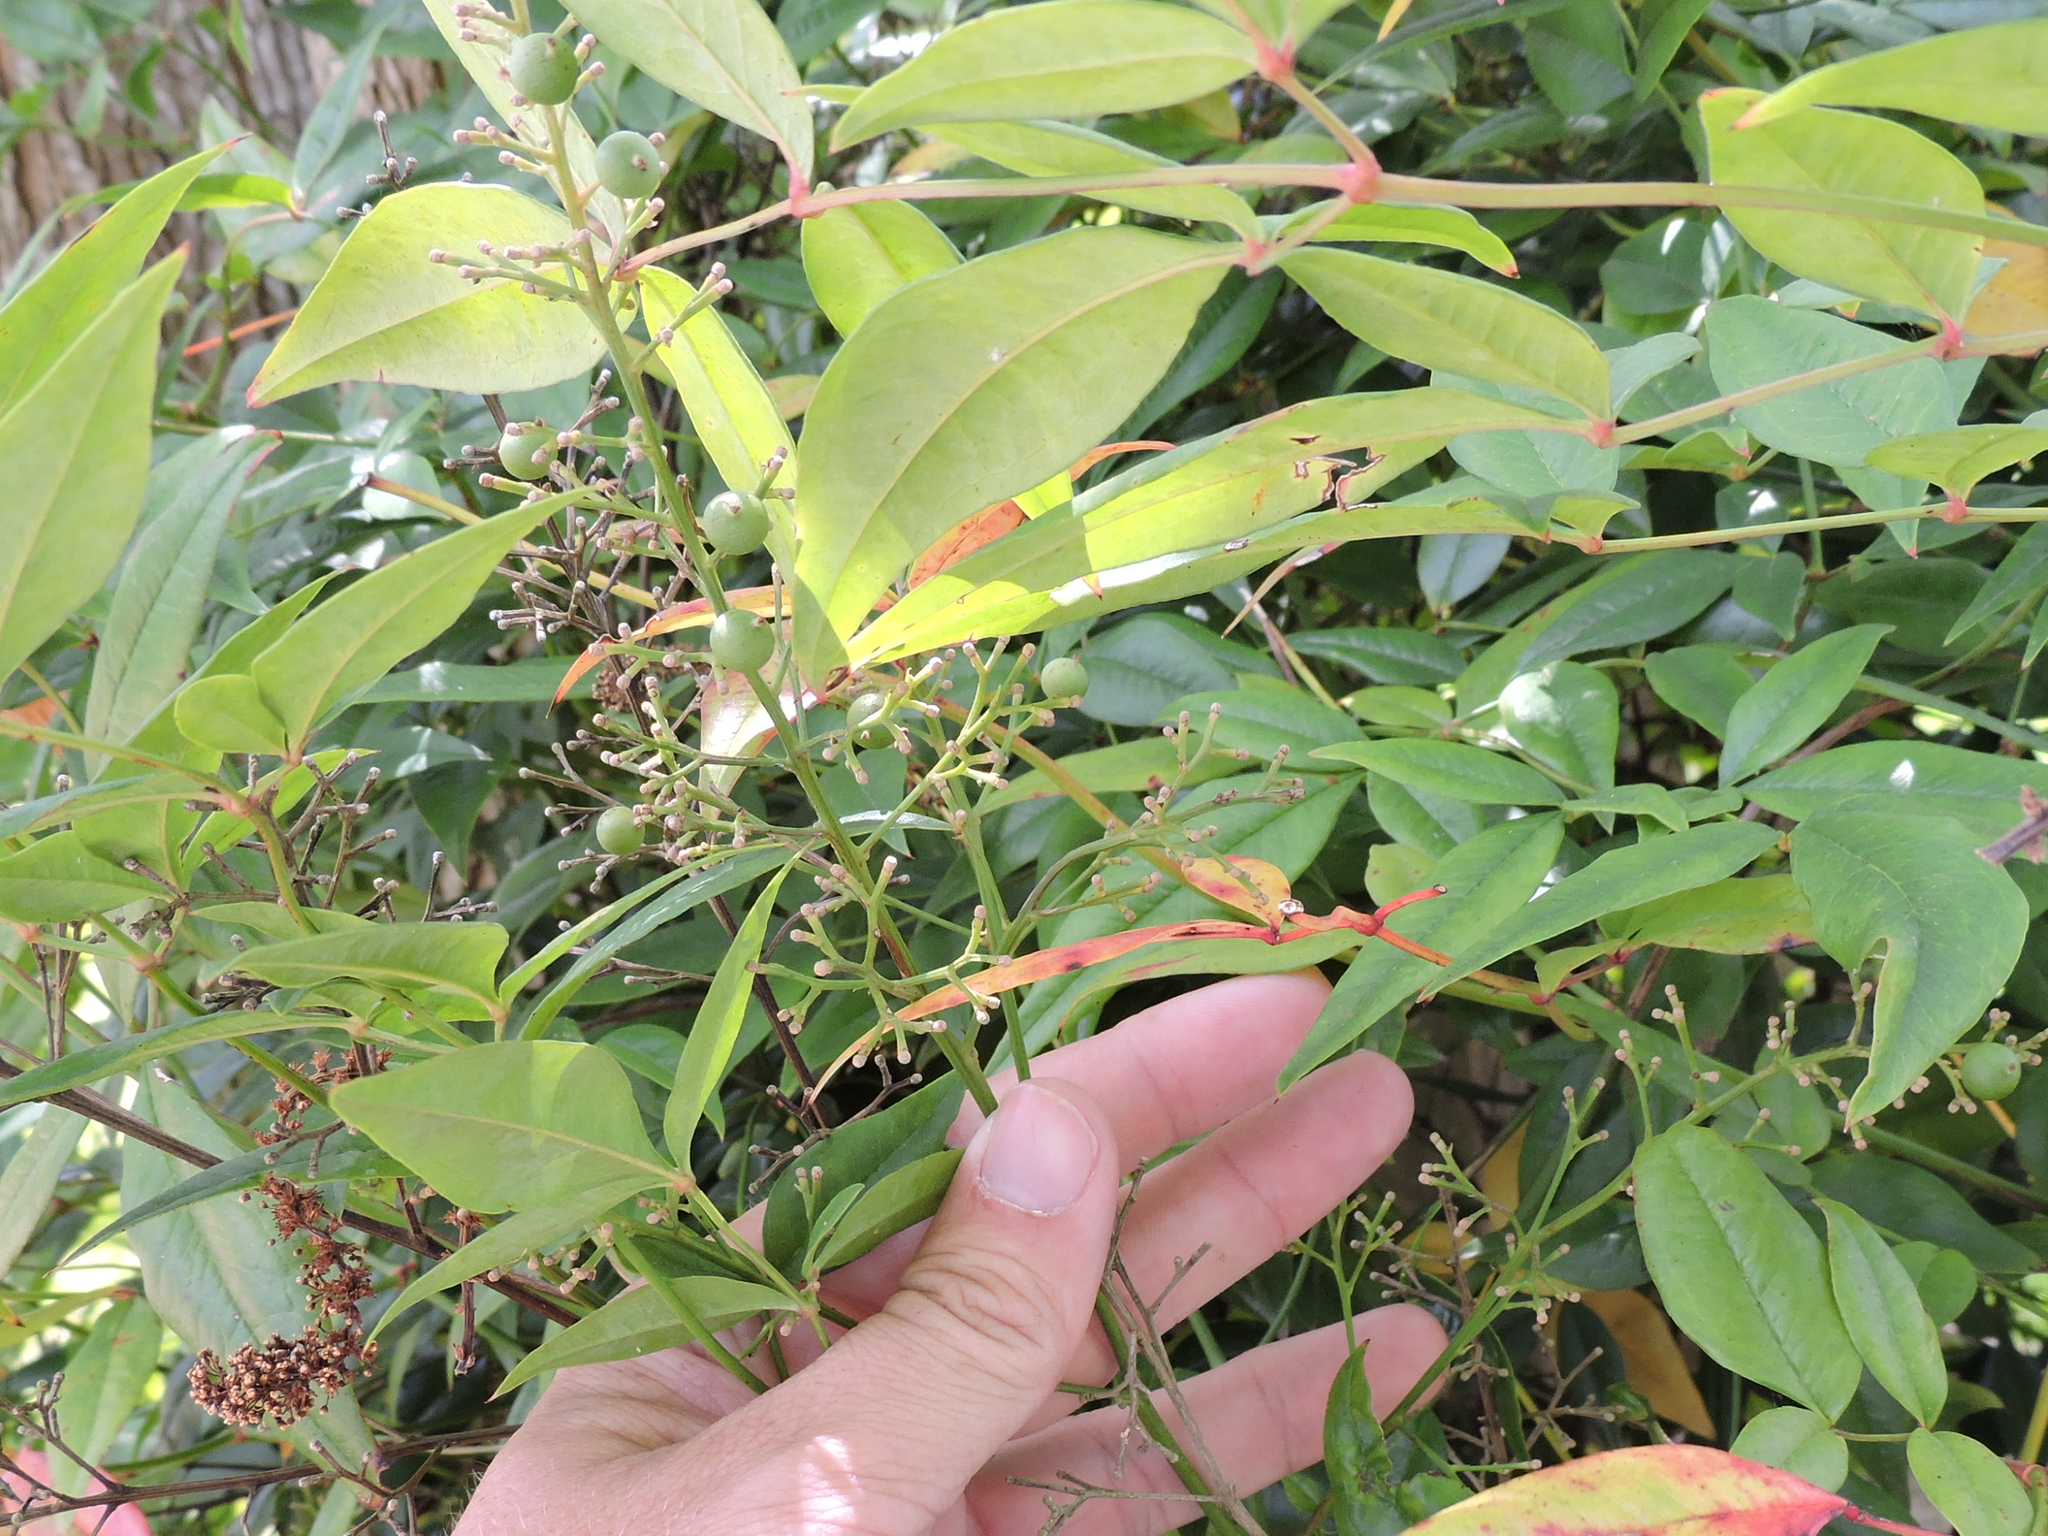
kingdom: Plantae
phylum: Tracheophyta
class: Magnoliopsida
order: Ranunculales
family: Berberidaceae
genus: Nandina
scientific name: Nandina domestica
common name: Sacred bamboo
